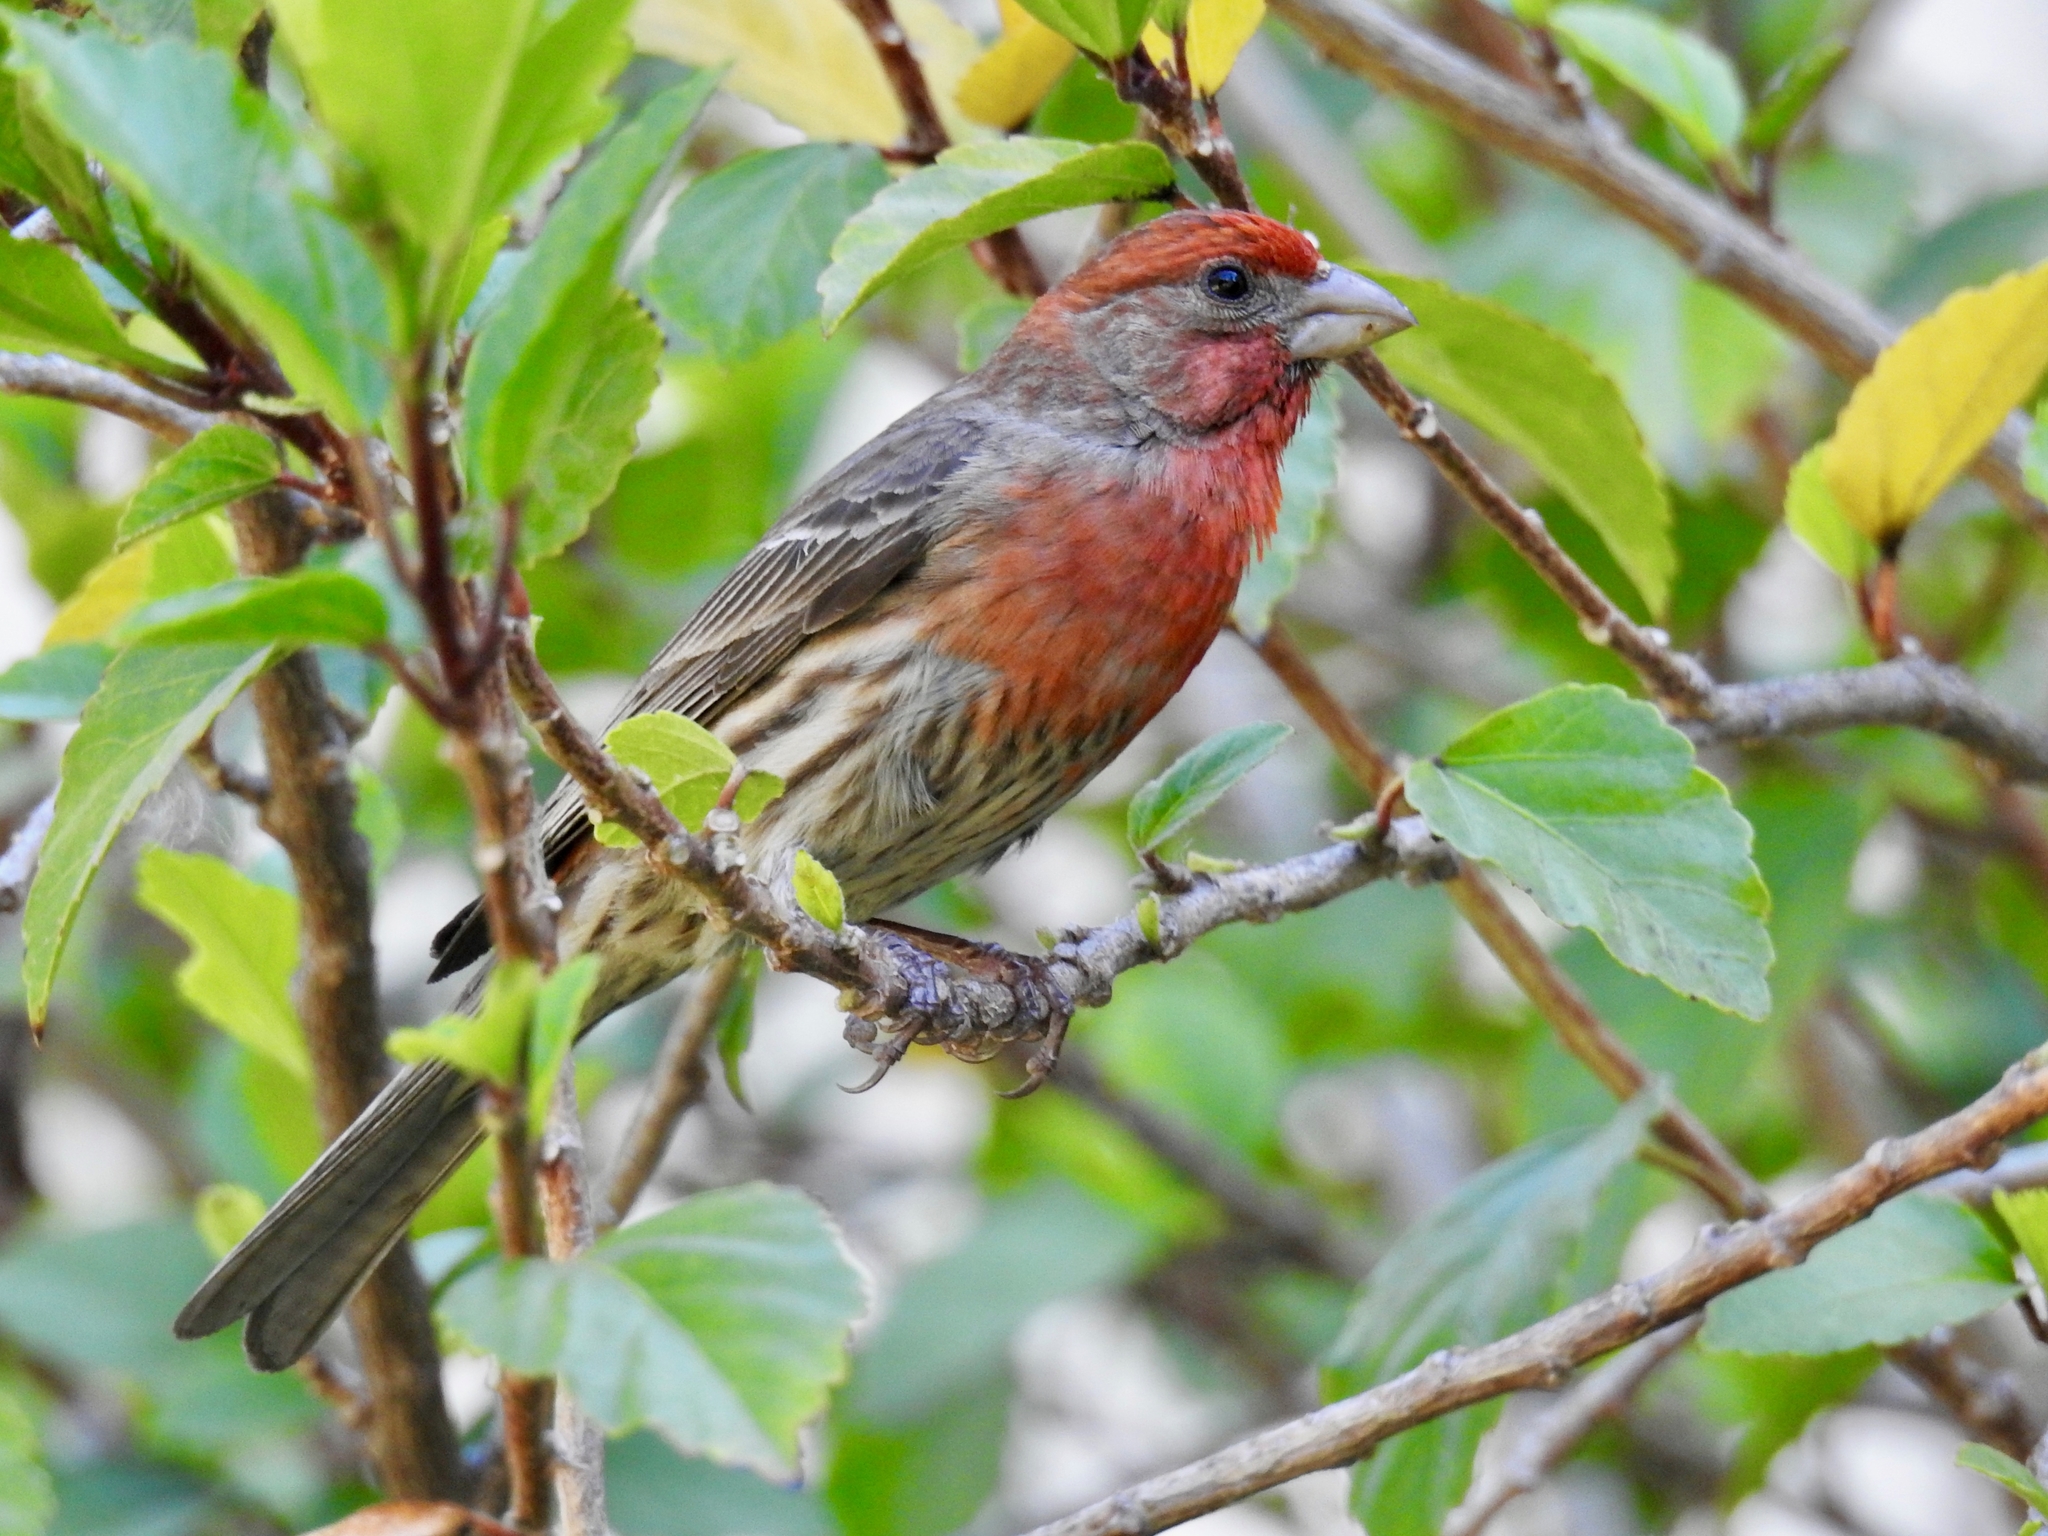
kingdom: Animalia
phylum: Chordata
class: Aves
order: Passeriformes
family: Fringillidae
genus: Haemorhous
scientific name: Haemorhous mexicanus
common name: House finch
